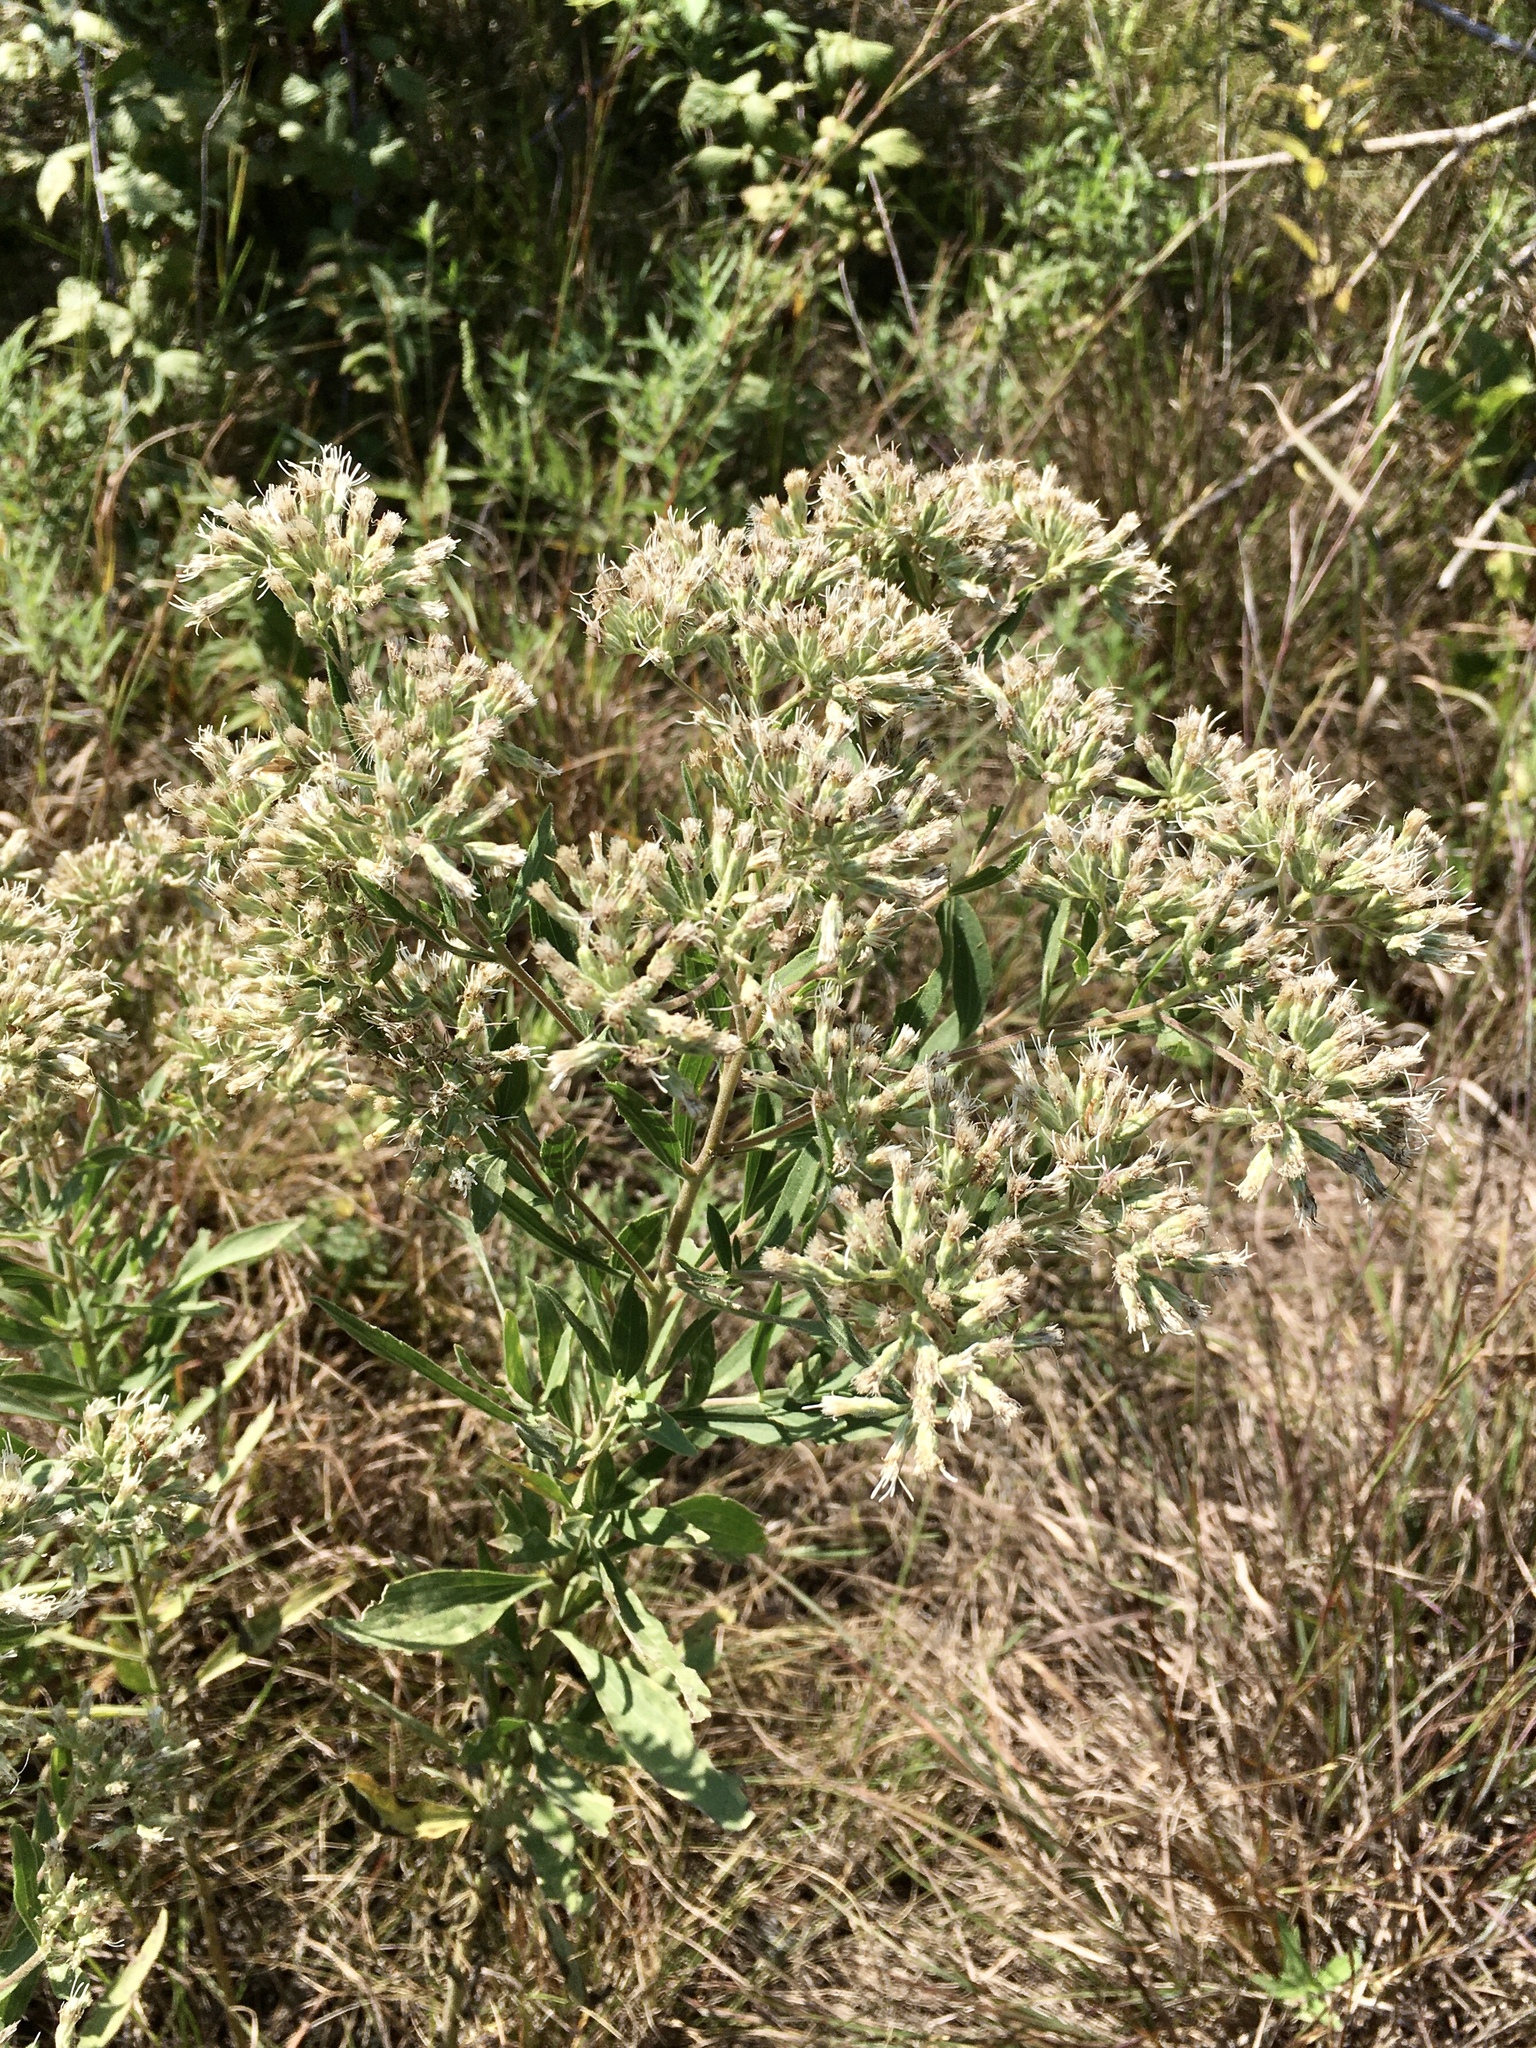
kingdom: Plantae
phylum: Tracheophyta
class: Magnoliopsida
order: Asterales
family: Asteraceae
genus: Eupatorium
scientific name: Eupatorium altissimum
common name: Tall thoroughwort
